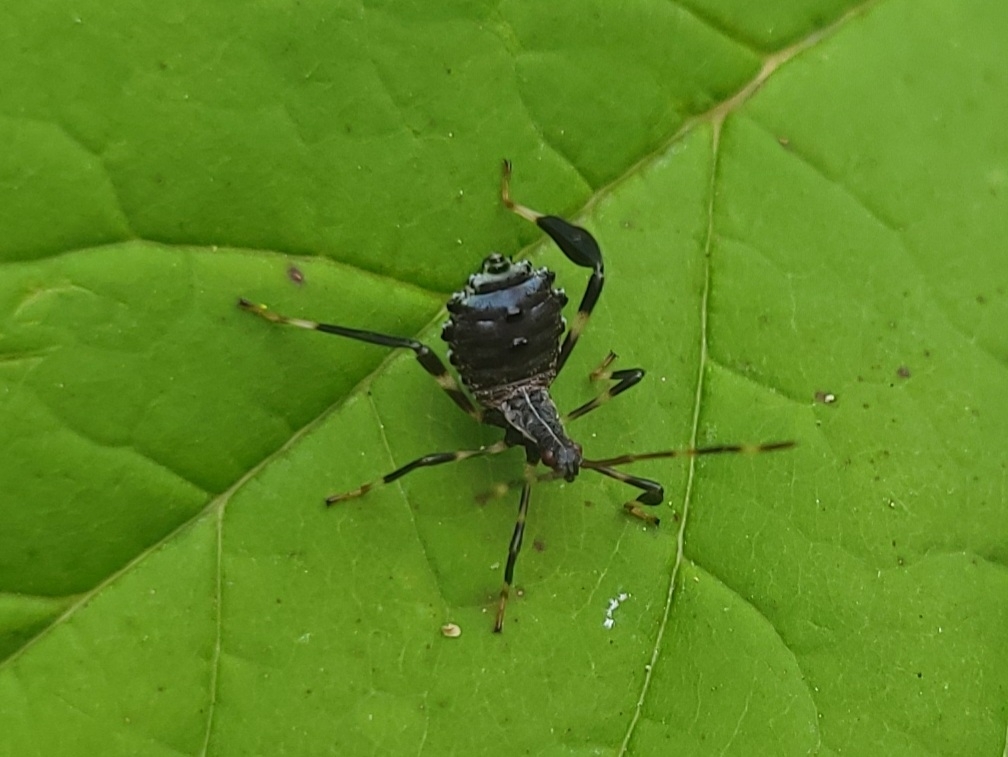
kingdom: Animalia
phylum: Arthropoda
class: Insecta
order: Hemiptera
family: Coreidae
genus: Acanthocephala
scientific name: Acanthocephala terminalis
